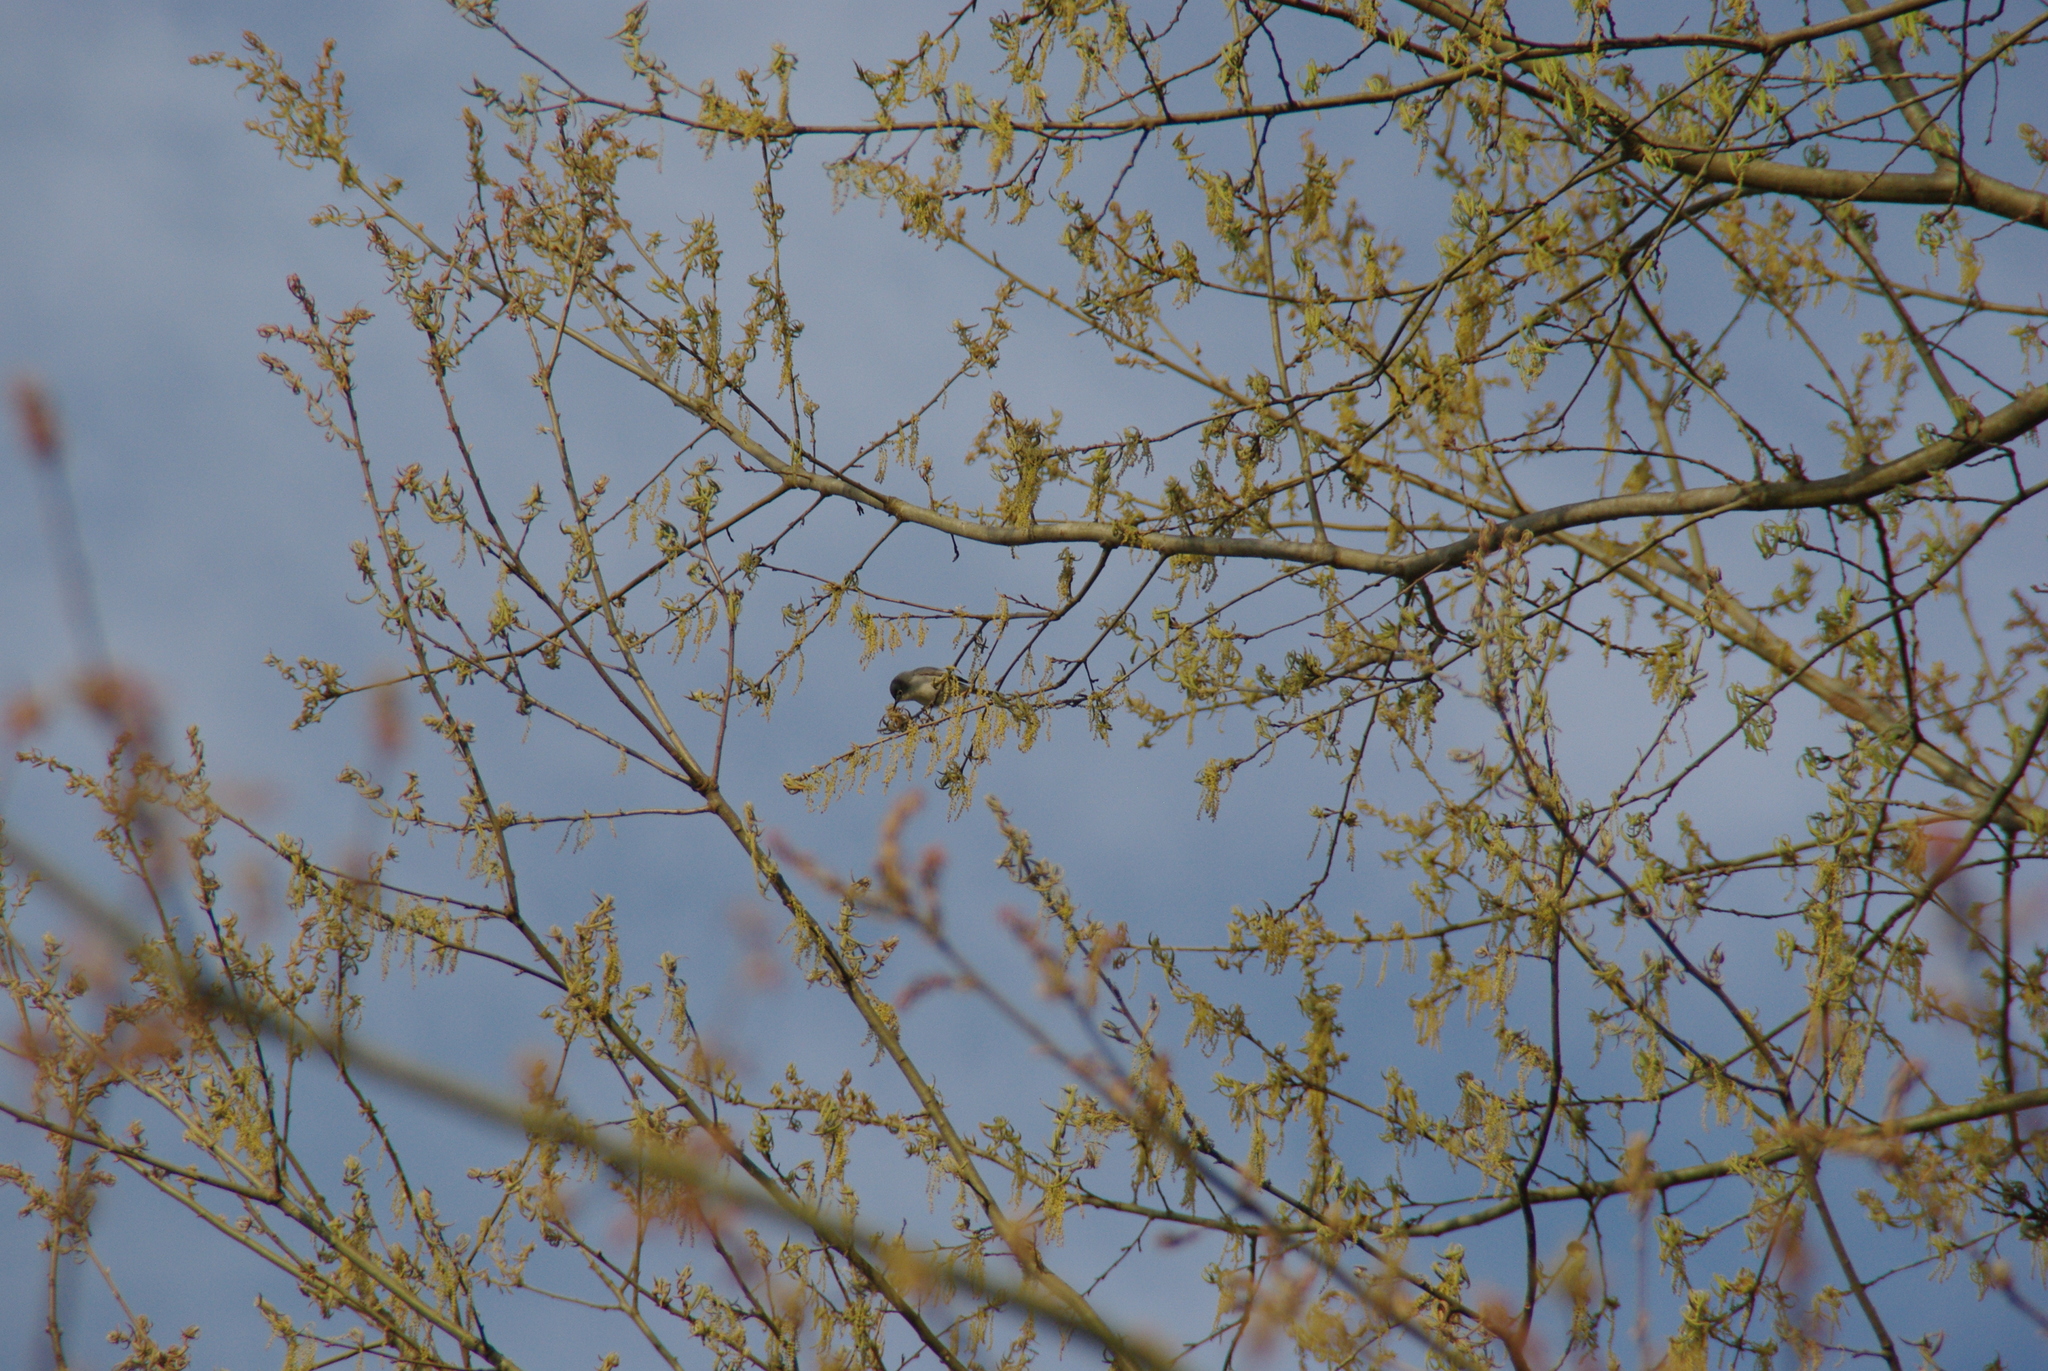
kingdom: Animalia
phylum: Chordata
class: Aves
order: Passeriformes
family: Polioptilidae
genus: Polioptila
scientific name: Polioptila caerulea
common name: Blue-gray gnatcatcher
